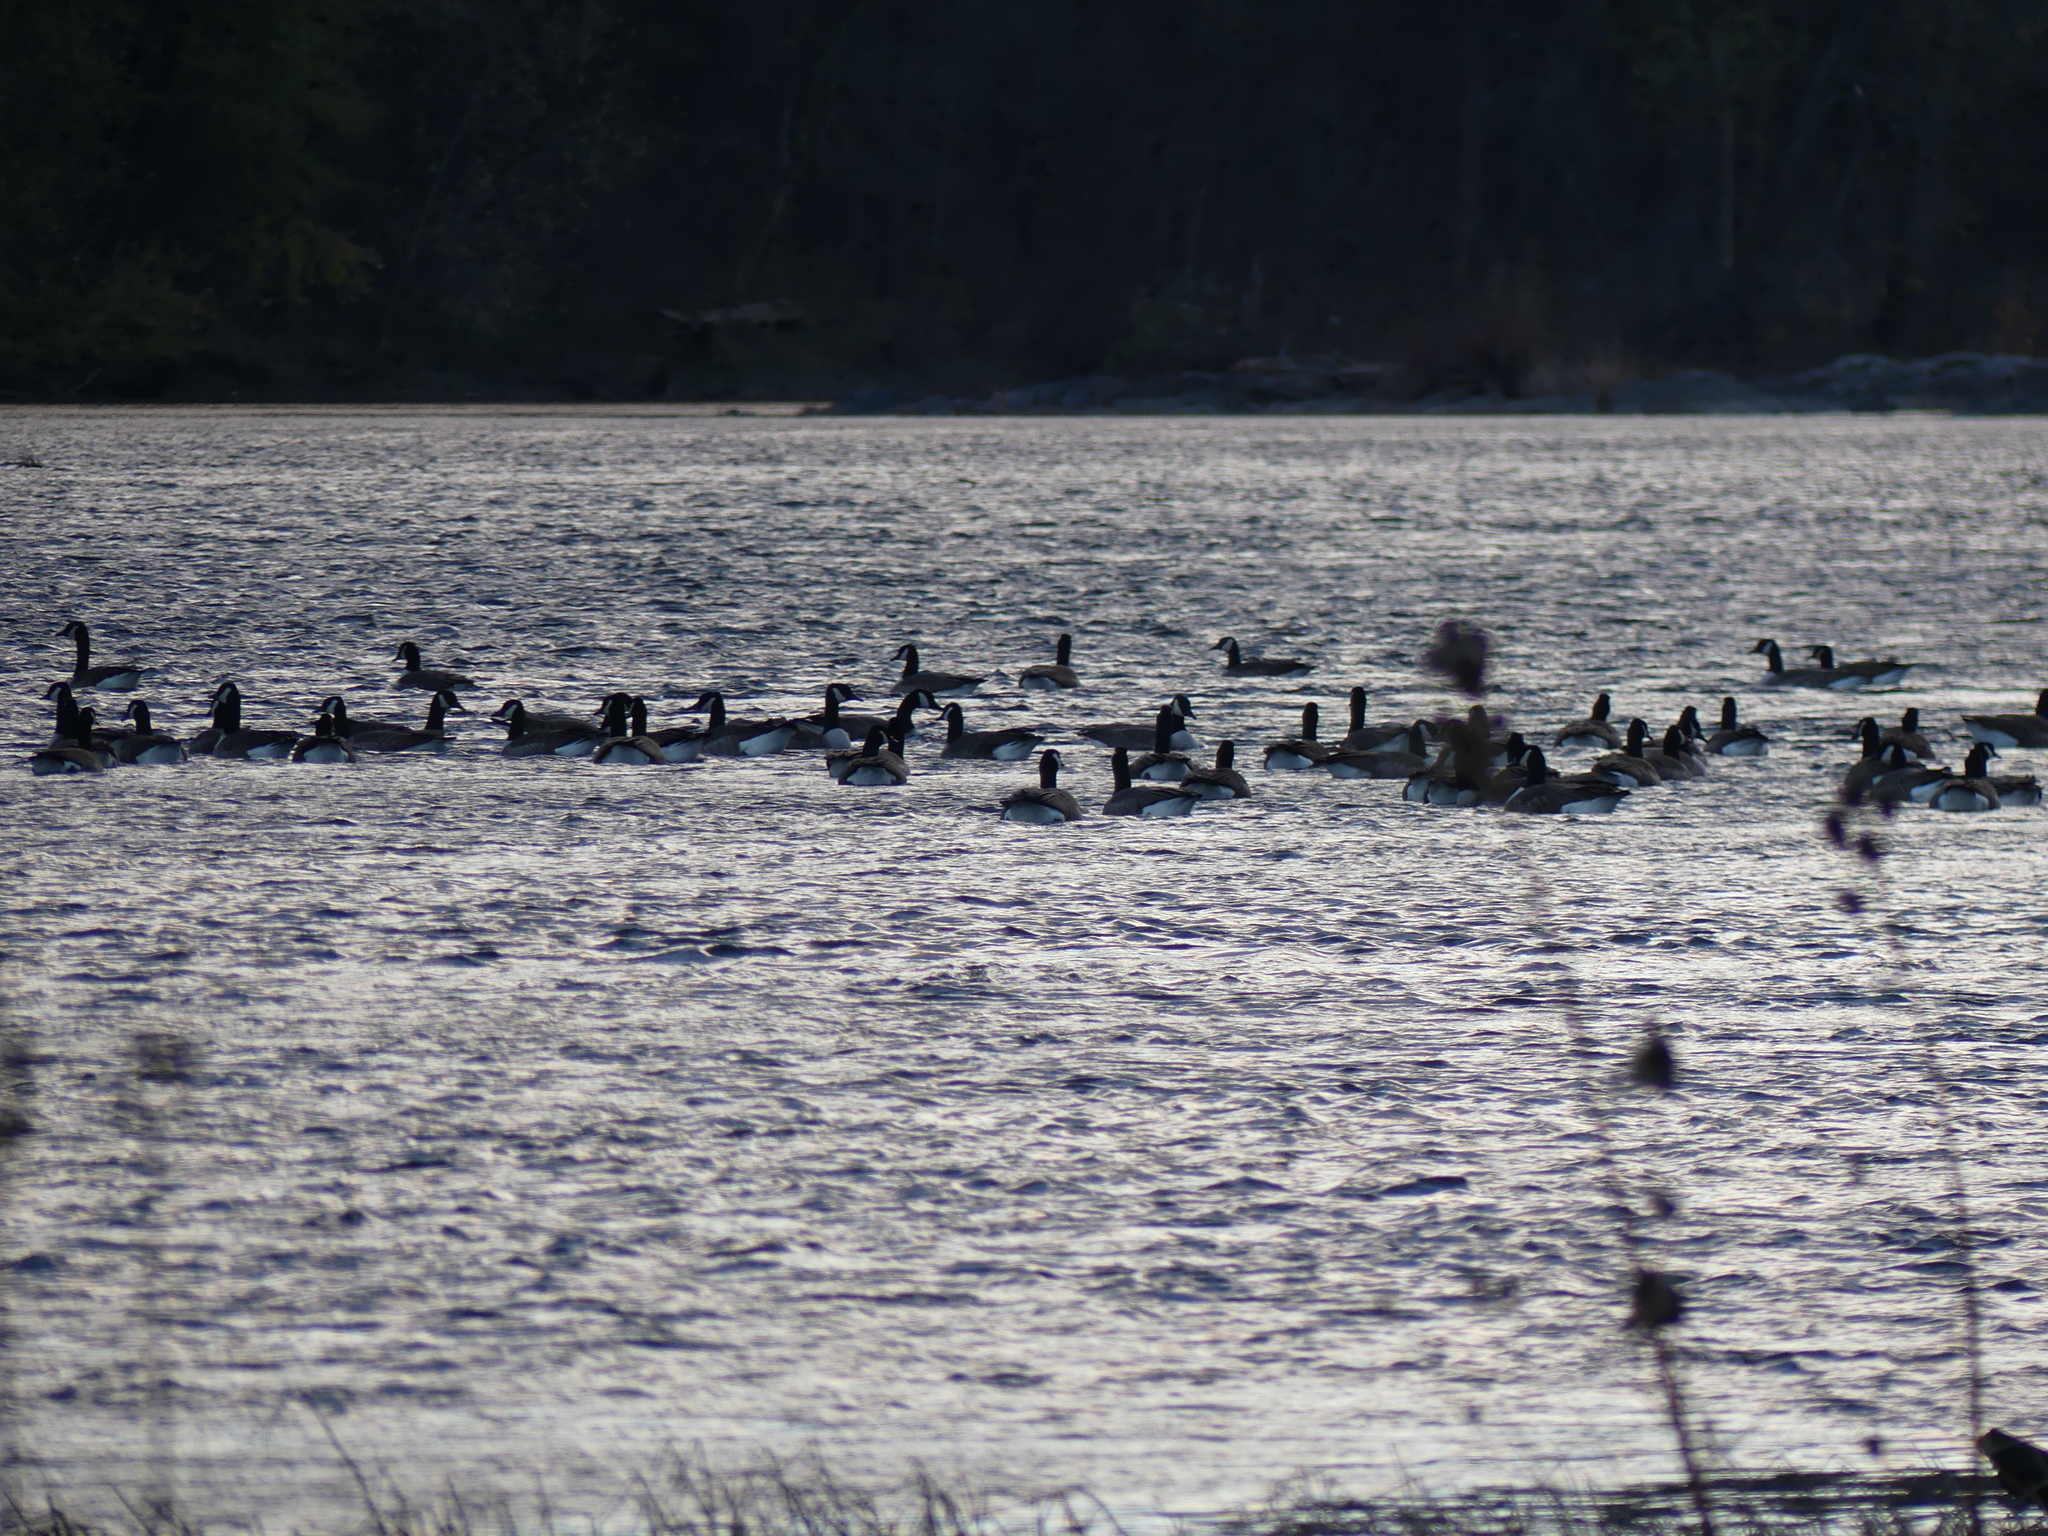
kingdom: Animalia
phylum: Chordata
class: Aves
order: Anseriformes
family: Anatidae
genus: Branta
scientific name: Branta canadensis
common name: Canada goose
